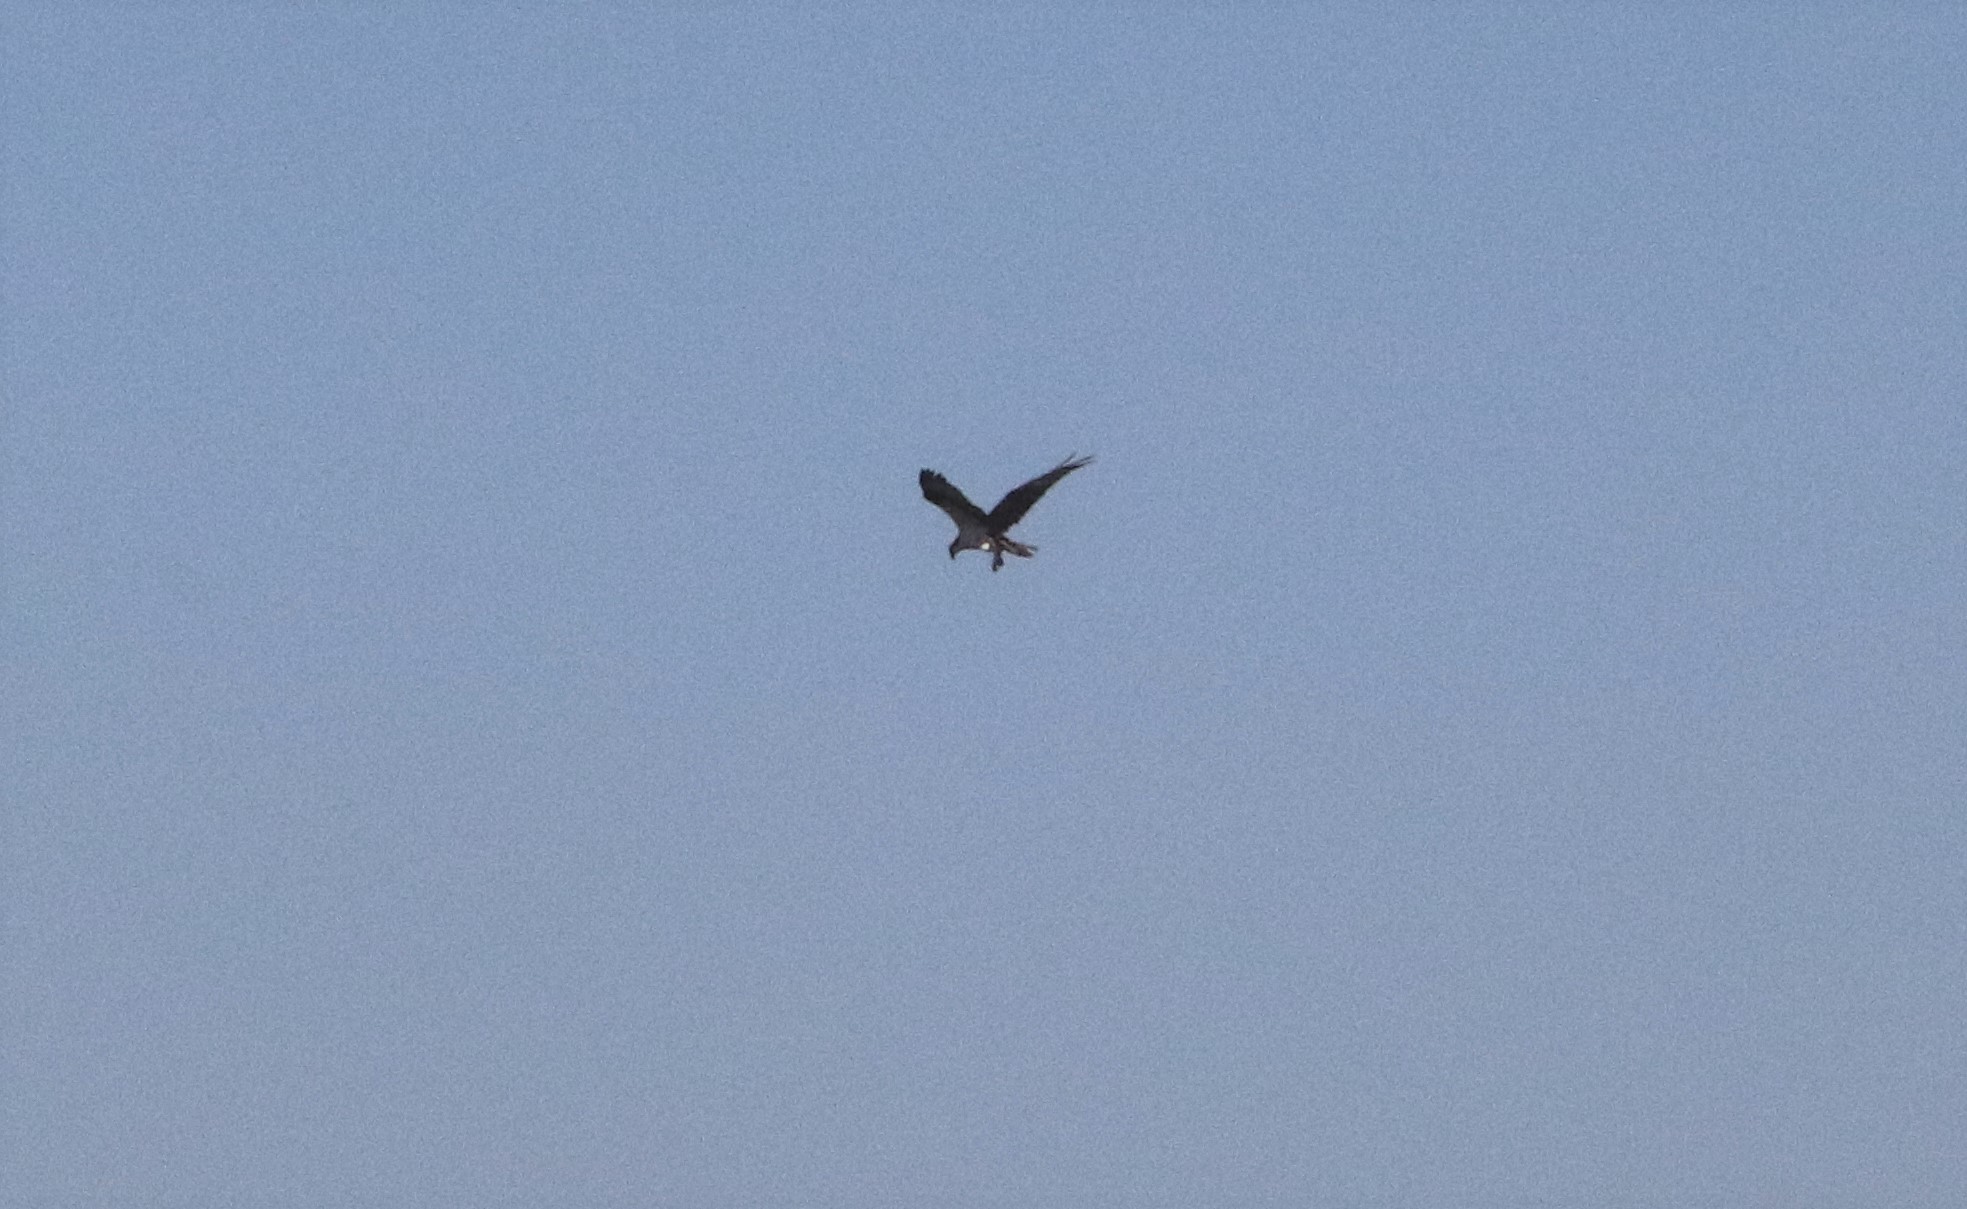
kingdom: Animalia
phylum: Chordata
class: Aves
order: Accipitriformes
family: Pandionidae
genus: Pandion
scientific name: Pandion haliaetus
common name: Osprey
